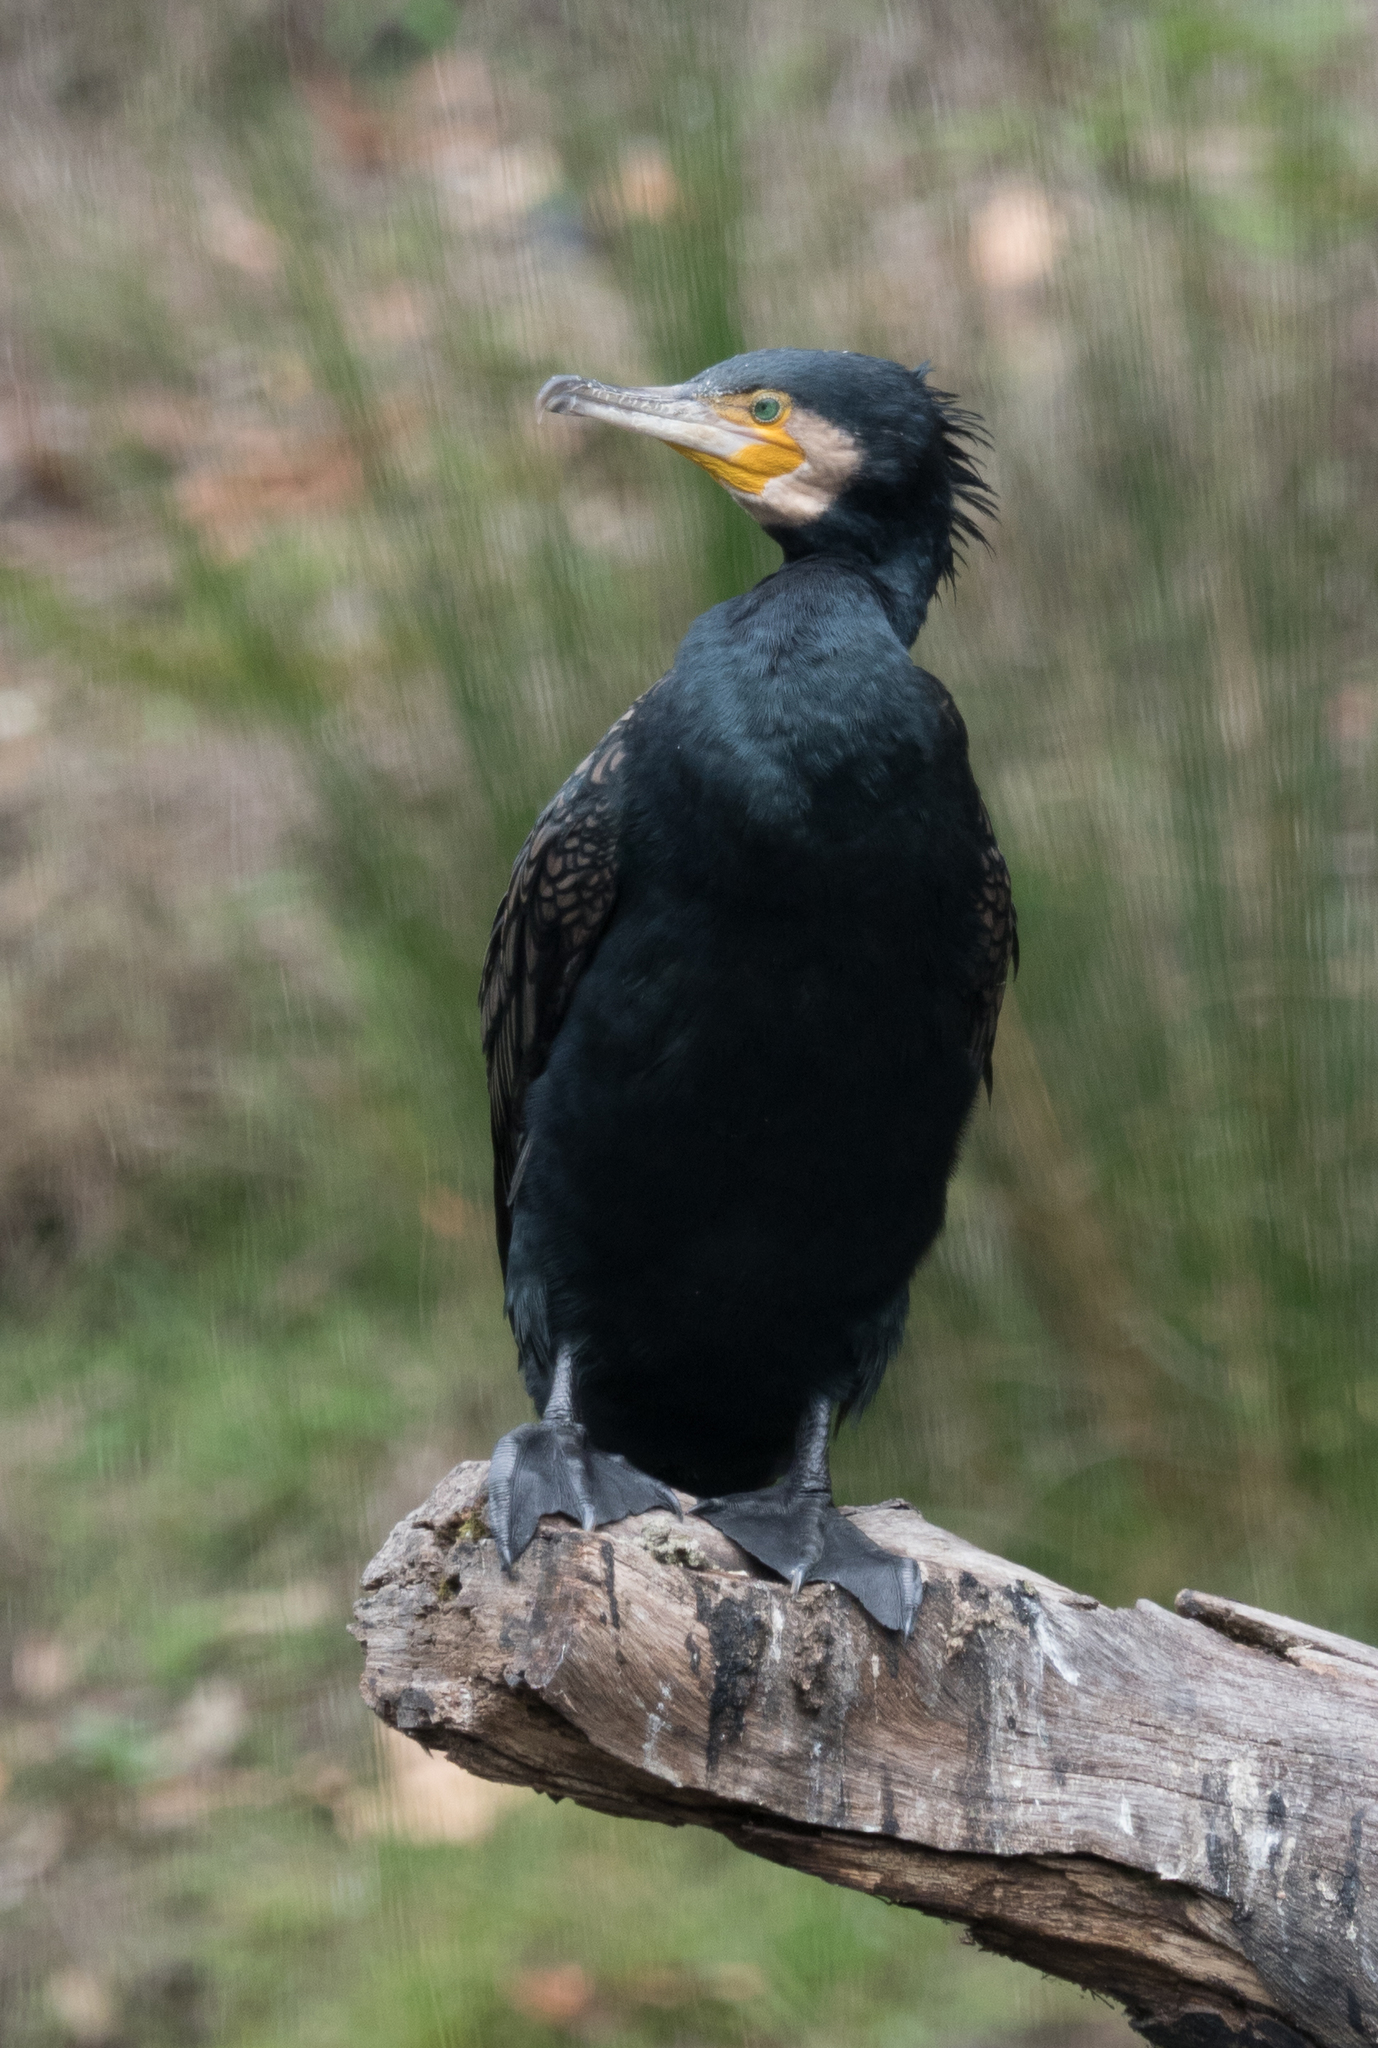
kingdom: Animalia
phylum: Chordata
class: Aves
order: Suliformes
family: Phalacrocoracidae
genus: Phalacrocorax
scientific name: Phalacrocorax carbo
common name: Great cormorant
